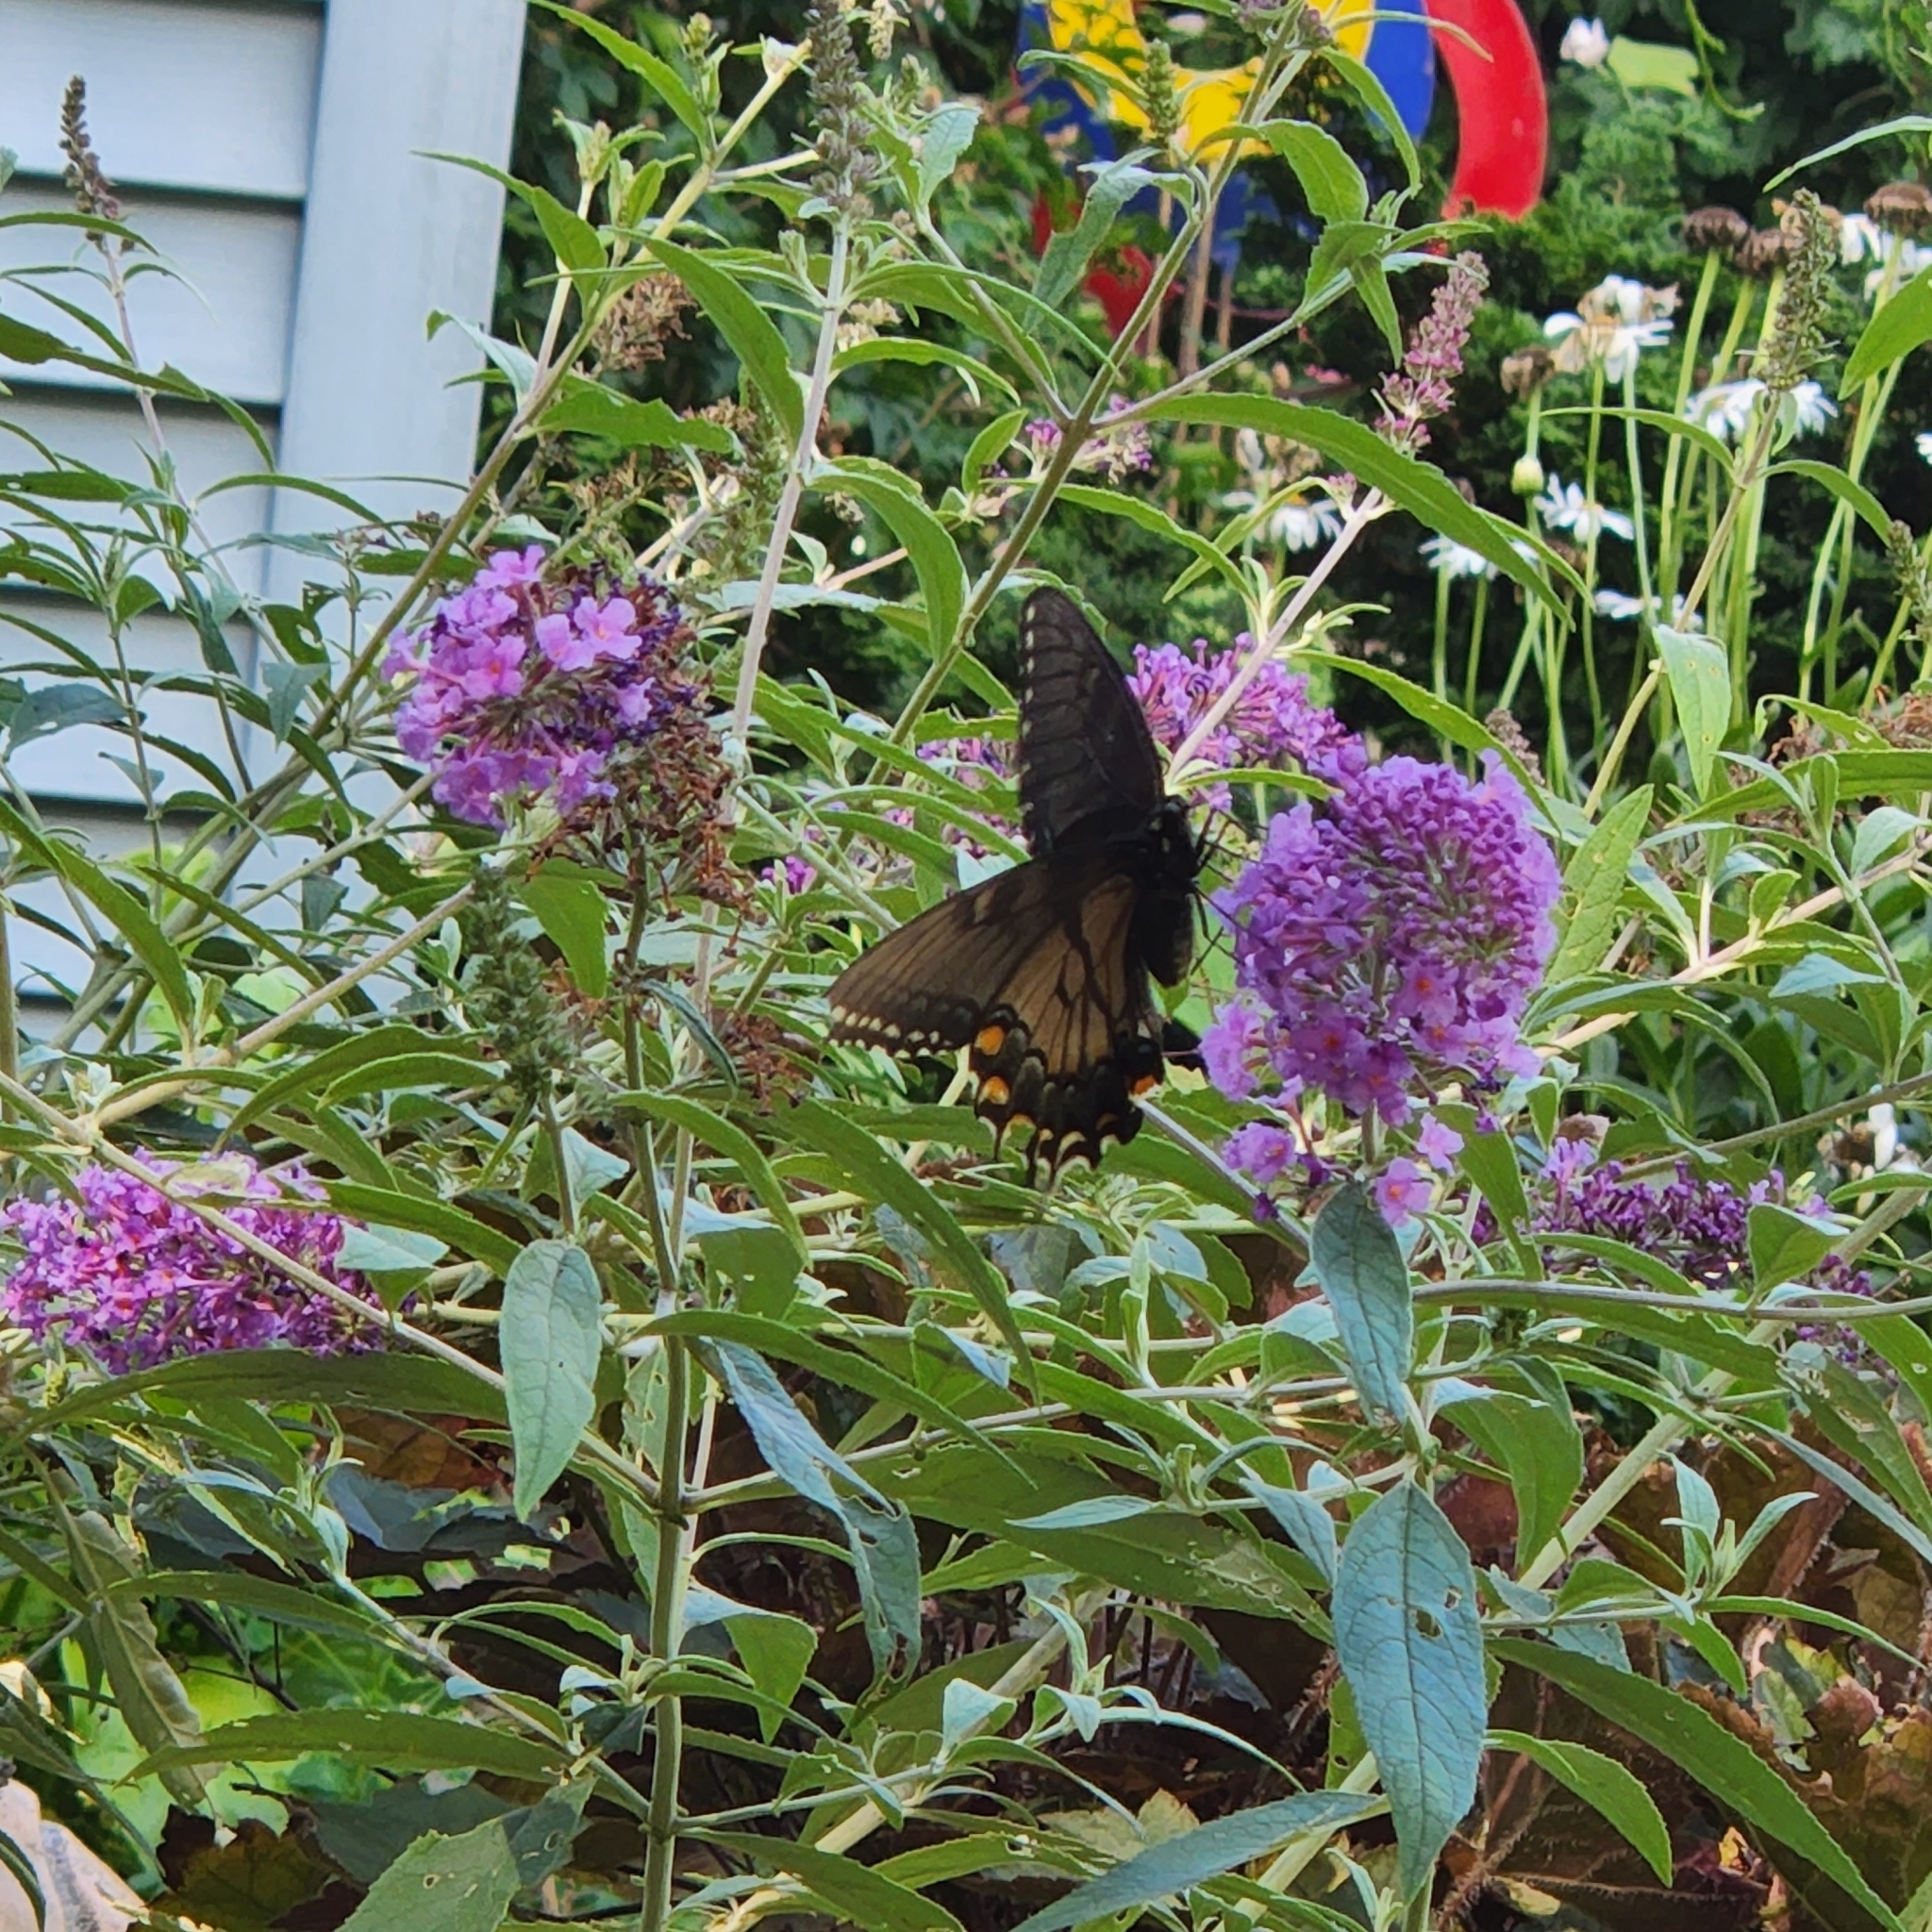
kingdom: Animalia
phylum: Arthropoda
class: Insecta
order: Lepidoptera
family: Papilionidae
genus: Papilio
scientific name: Papilio glaucus
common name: Tiger swallowtail
